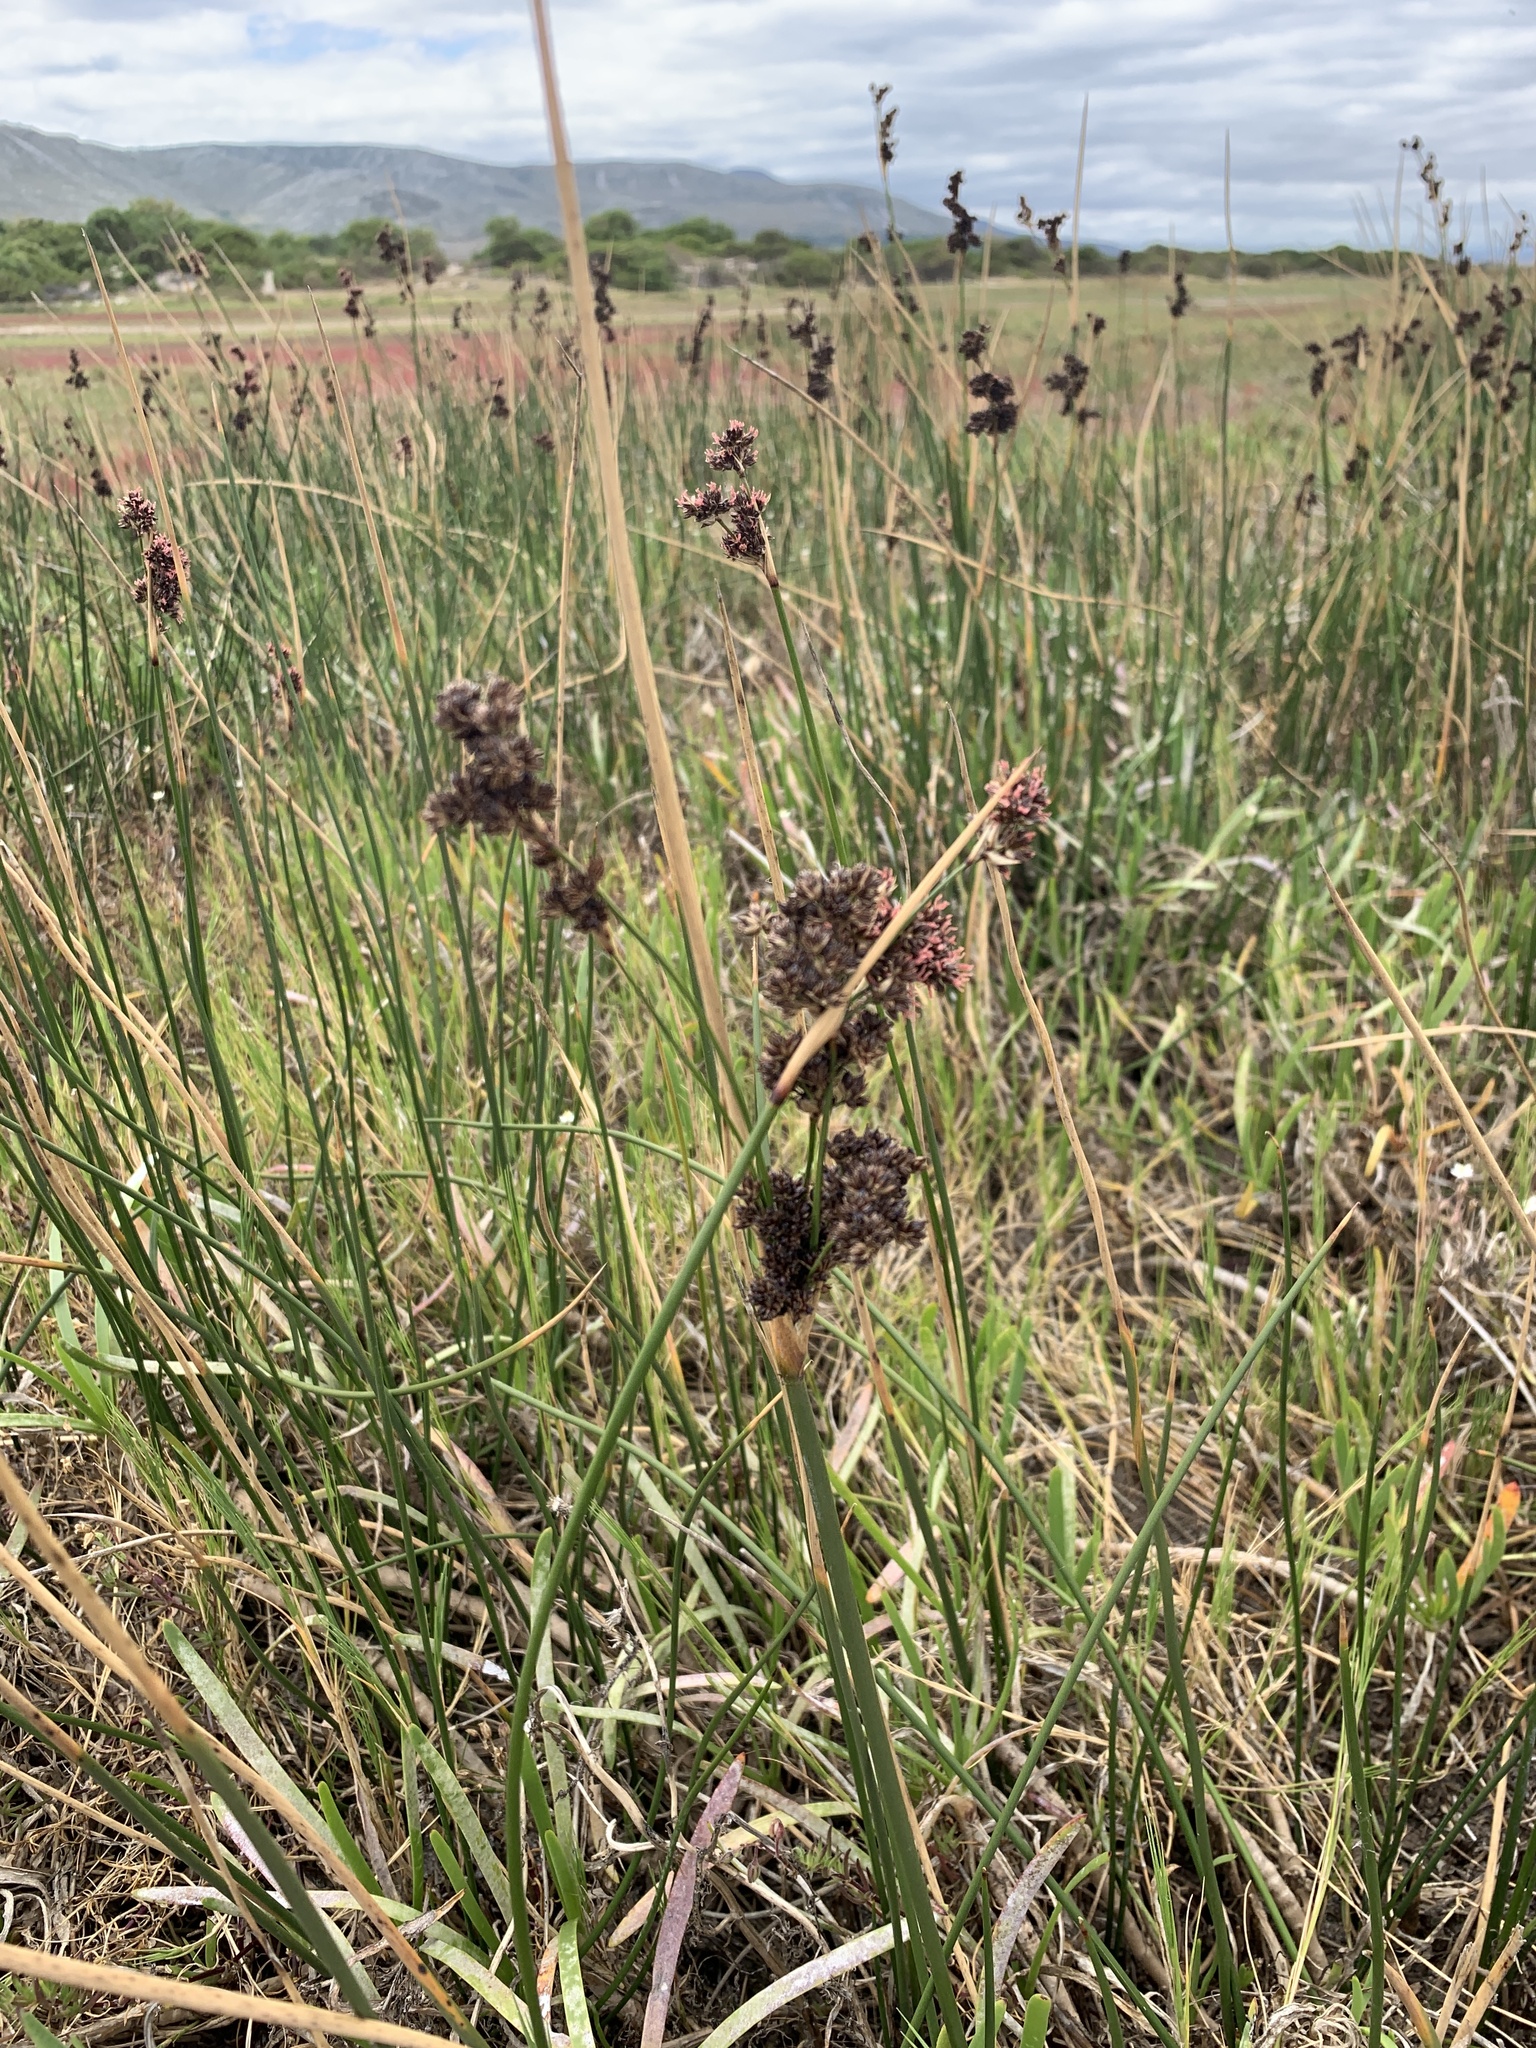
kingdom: Plantae
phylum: Tracheophyta
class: Liliopsida
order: Poales
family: Juncaceae
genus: Juncus
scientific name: Juncus kraussii
